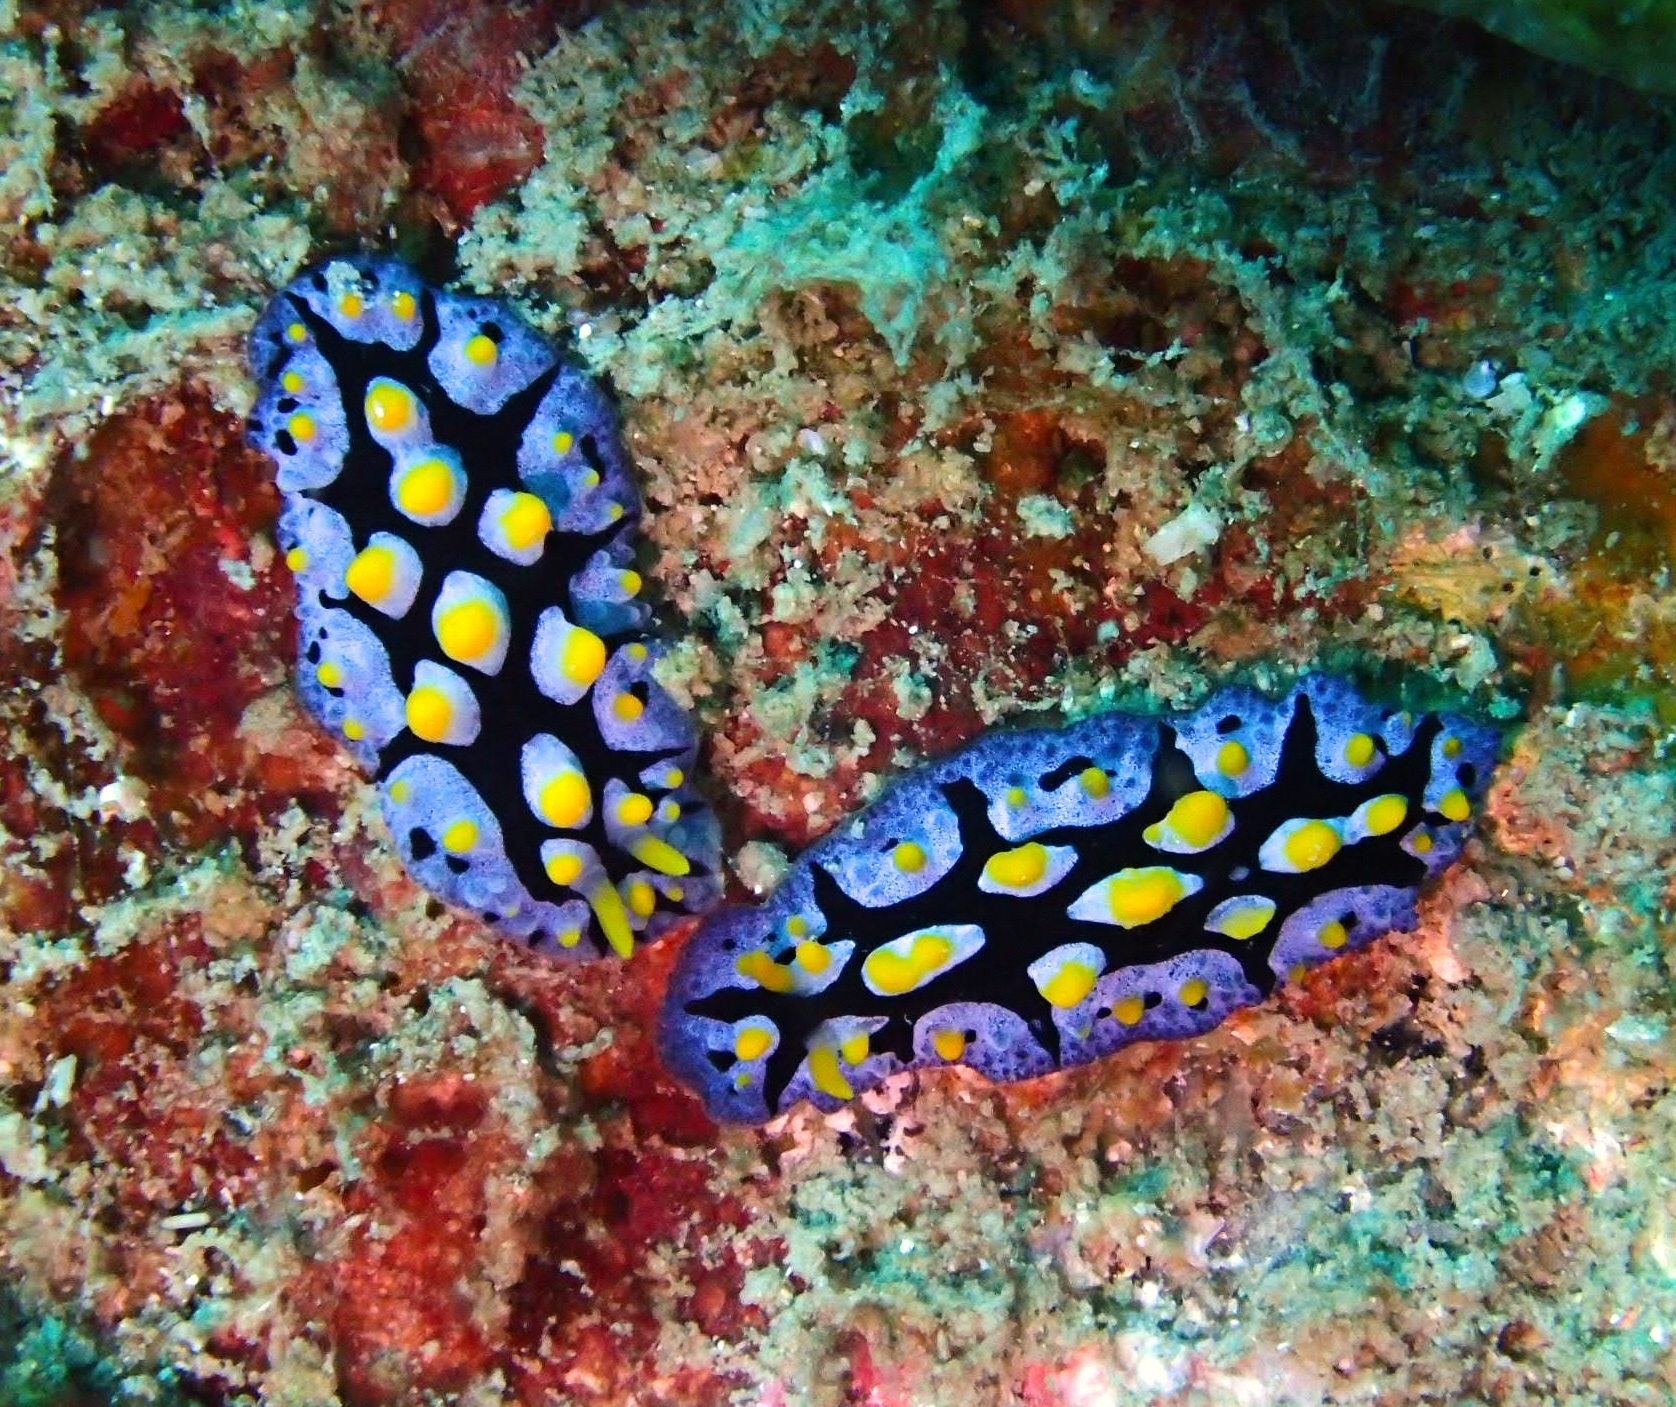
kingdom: Animalia
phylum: Mollusca
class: Gastropoda
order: Nudibranchia
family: Phyllidiidae
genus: Phyllidia
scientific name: Phyllidia picta
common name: Black-rayed phyllidia
